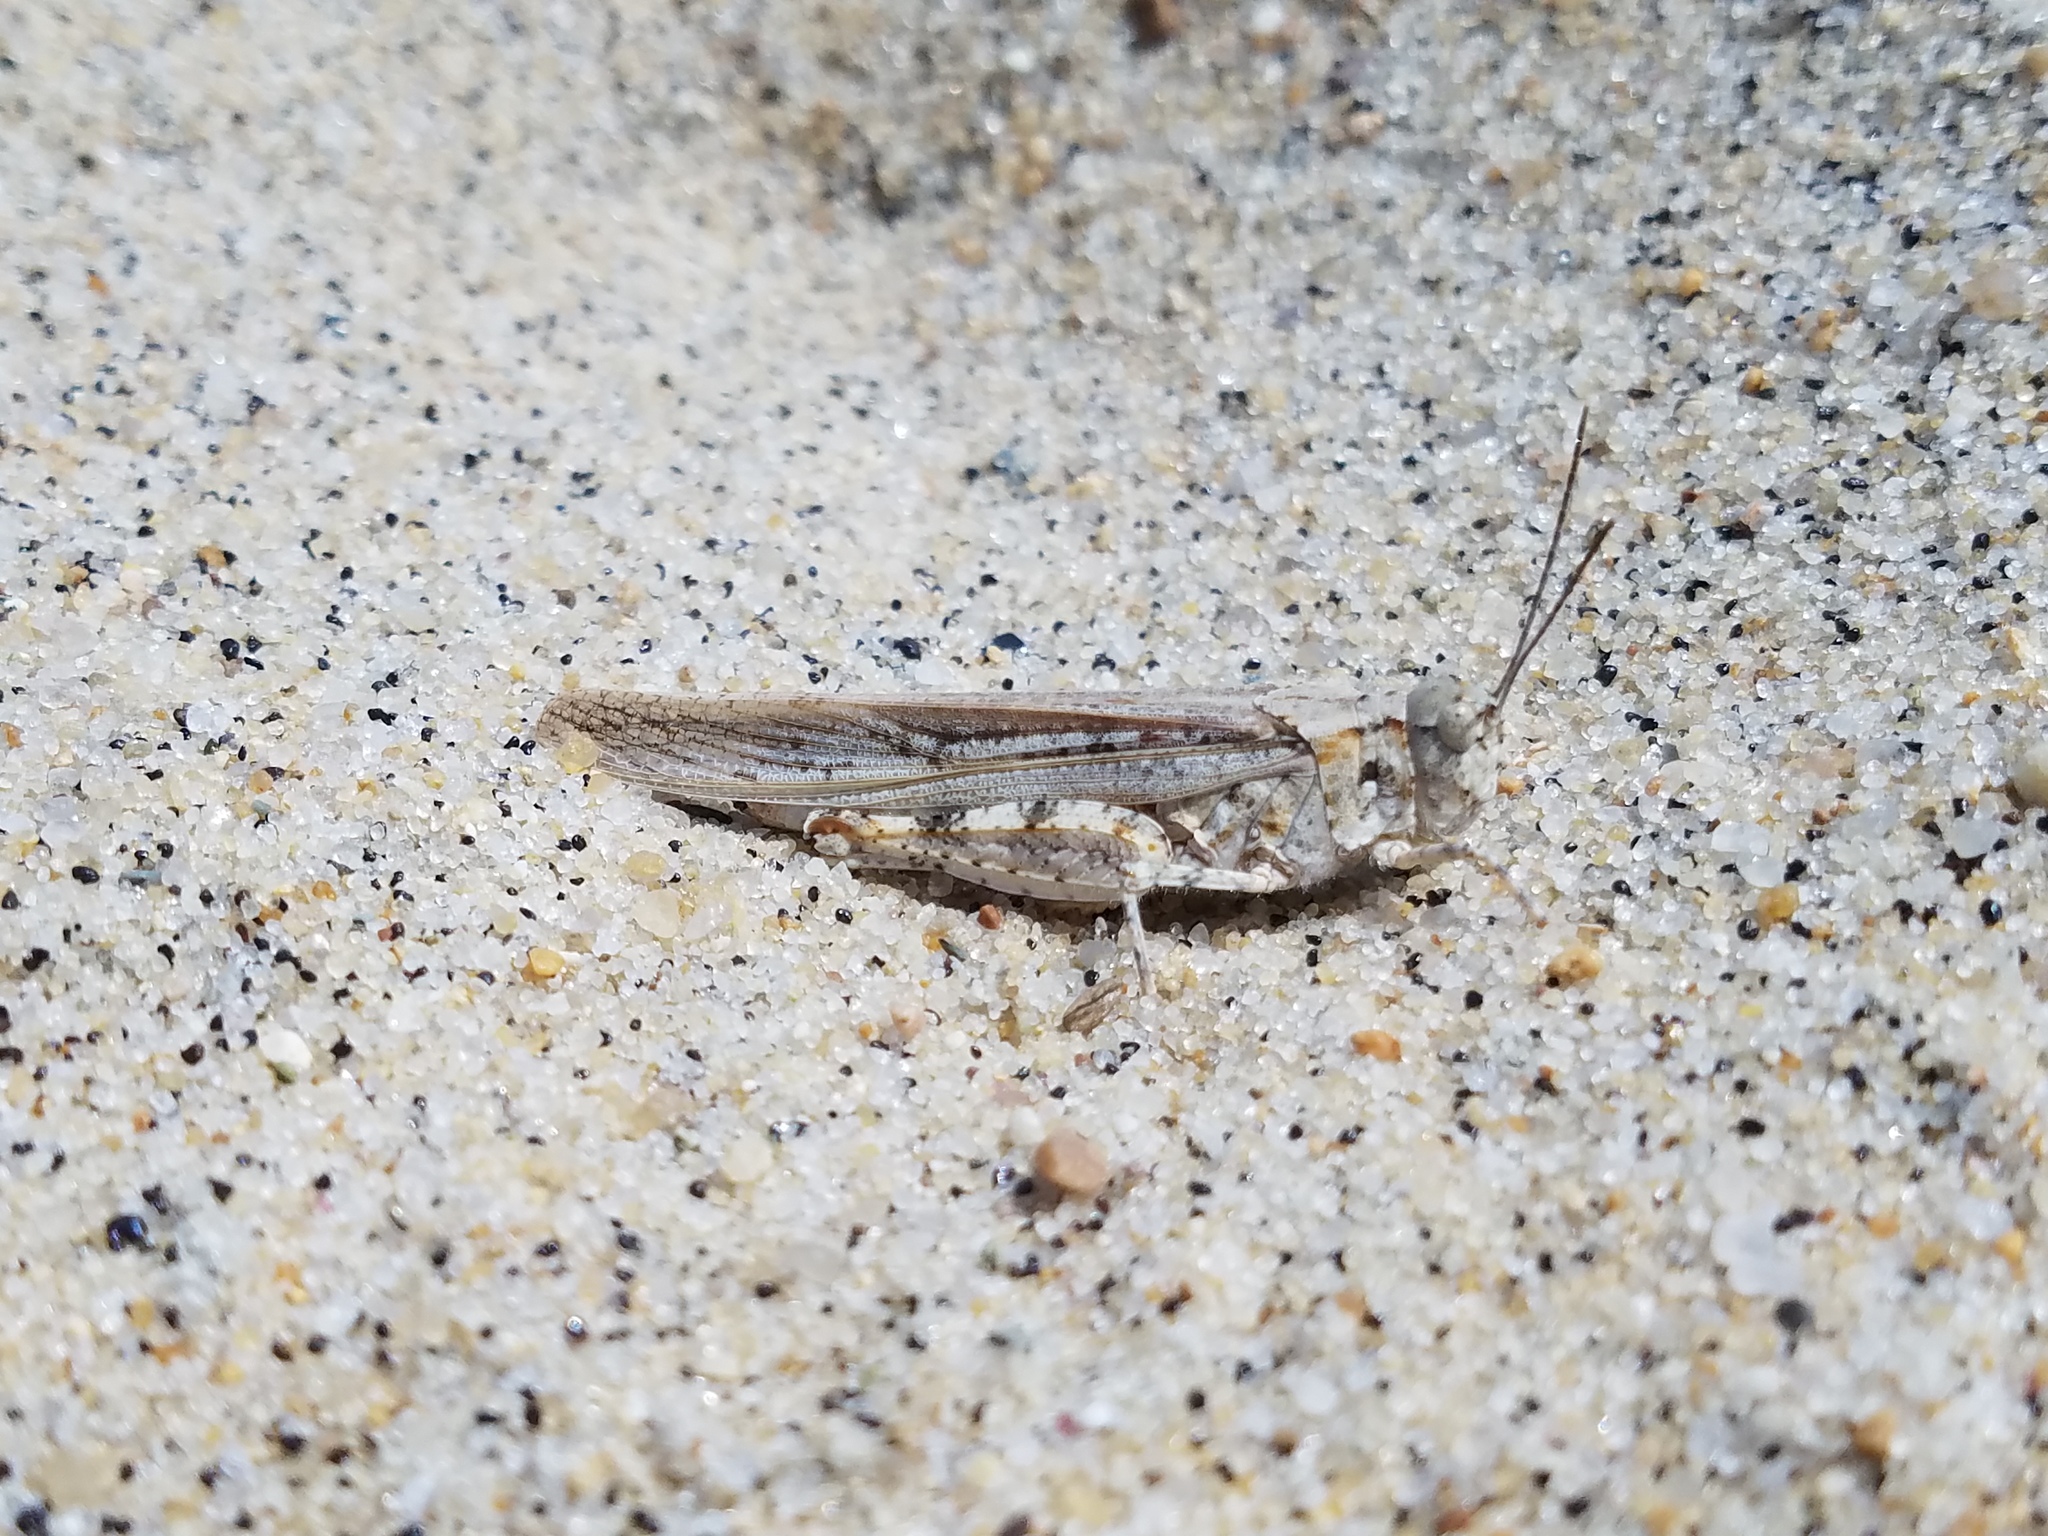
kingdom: Animalia
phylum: Arthropoda
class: Insecta
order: Orthoptera
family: Acrididae
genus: Trimerotropis
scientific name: Trimerotropis maritima
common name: Seaside locust
